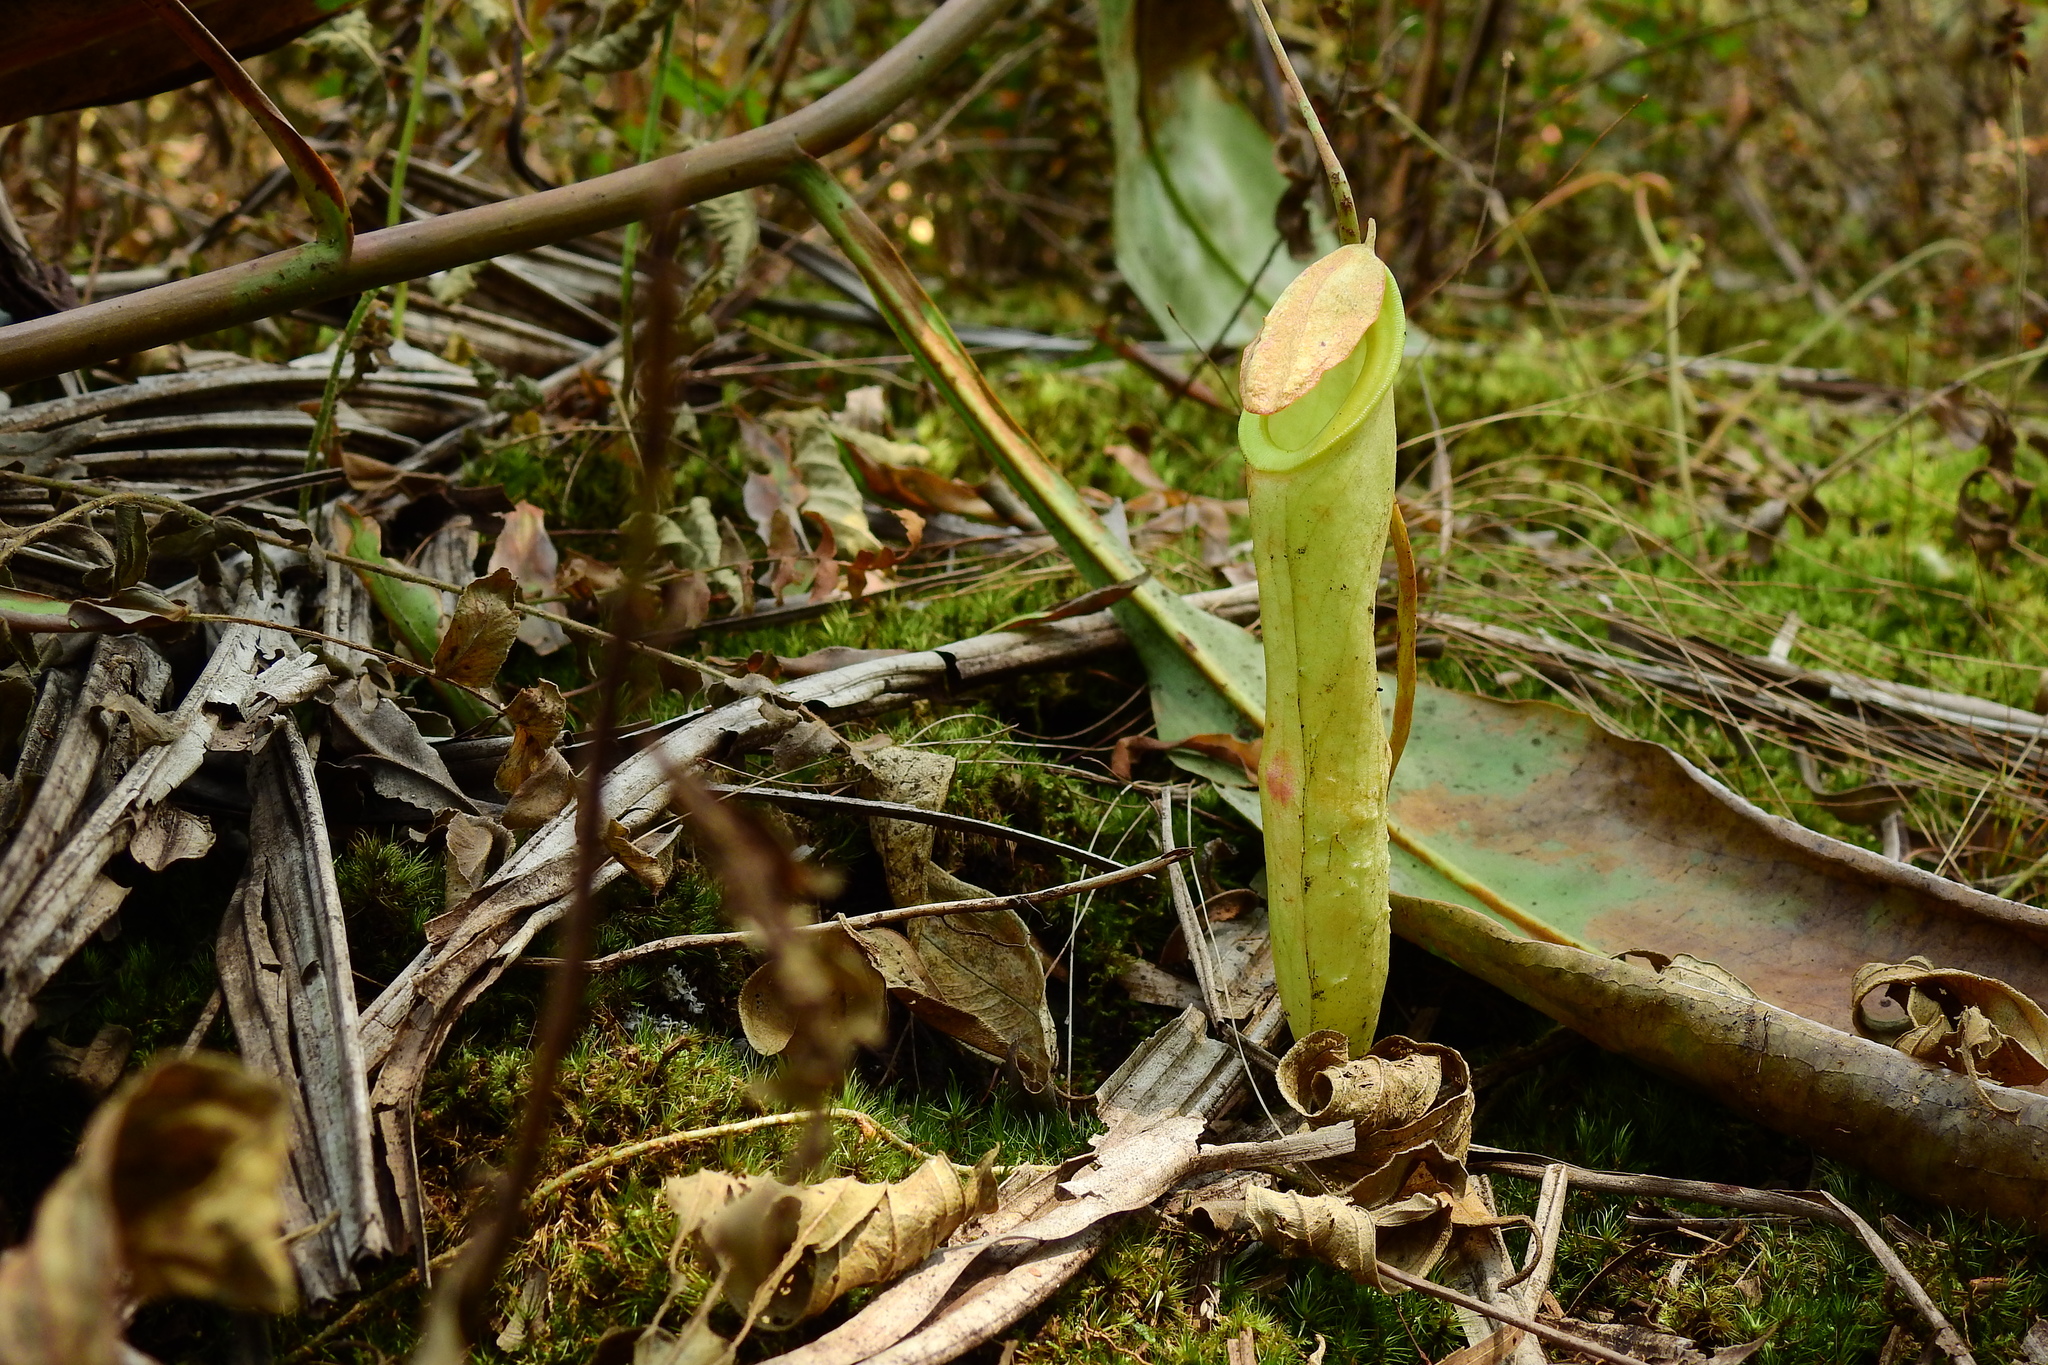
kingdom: Plantae
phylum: Tracheophyta
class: Magnoliopsida
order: Caryophyllales
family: Nepenthaceae
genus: Nepenthes
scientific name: Nepenthes mirabilis
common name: Tropical pitcherplant
